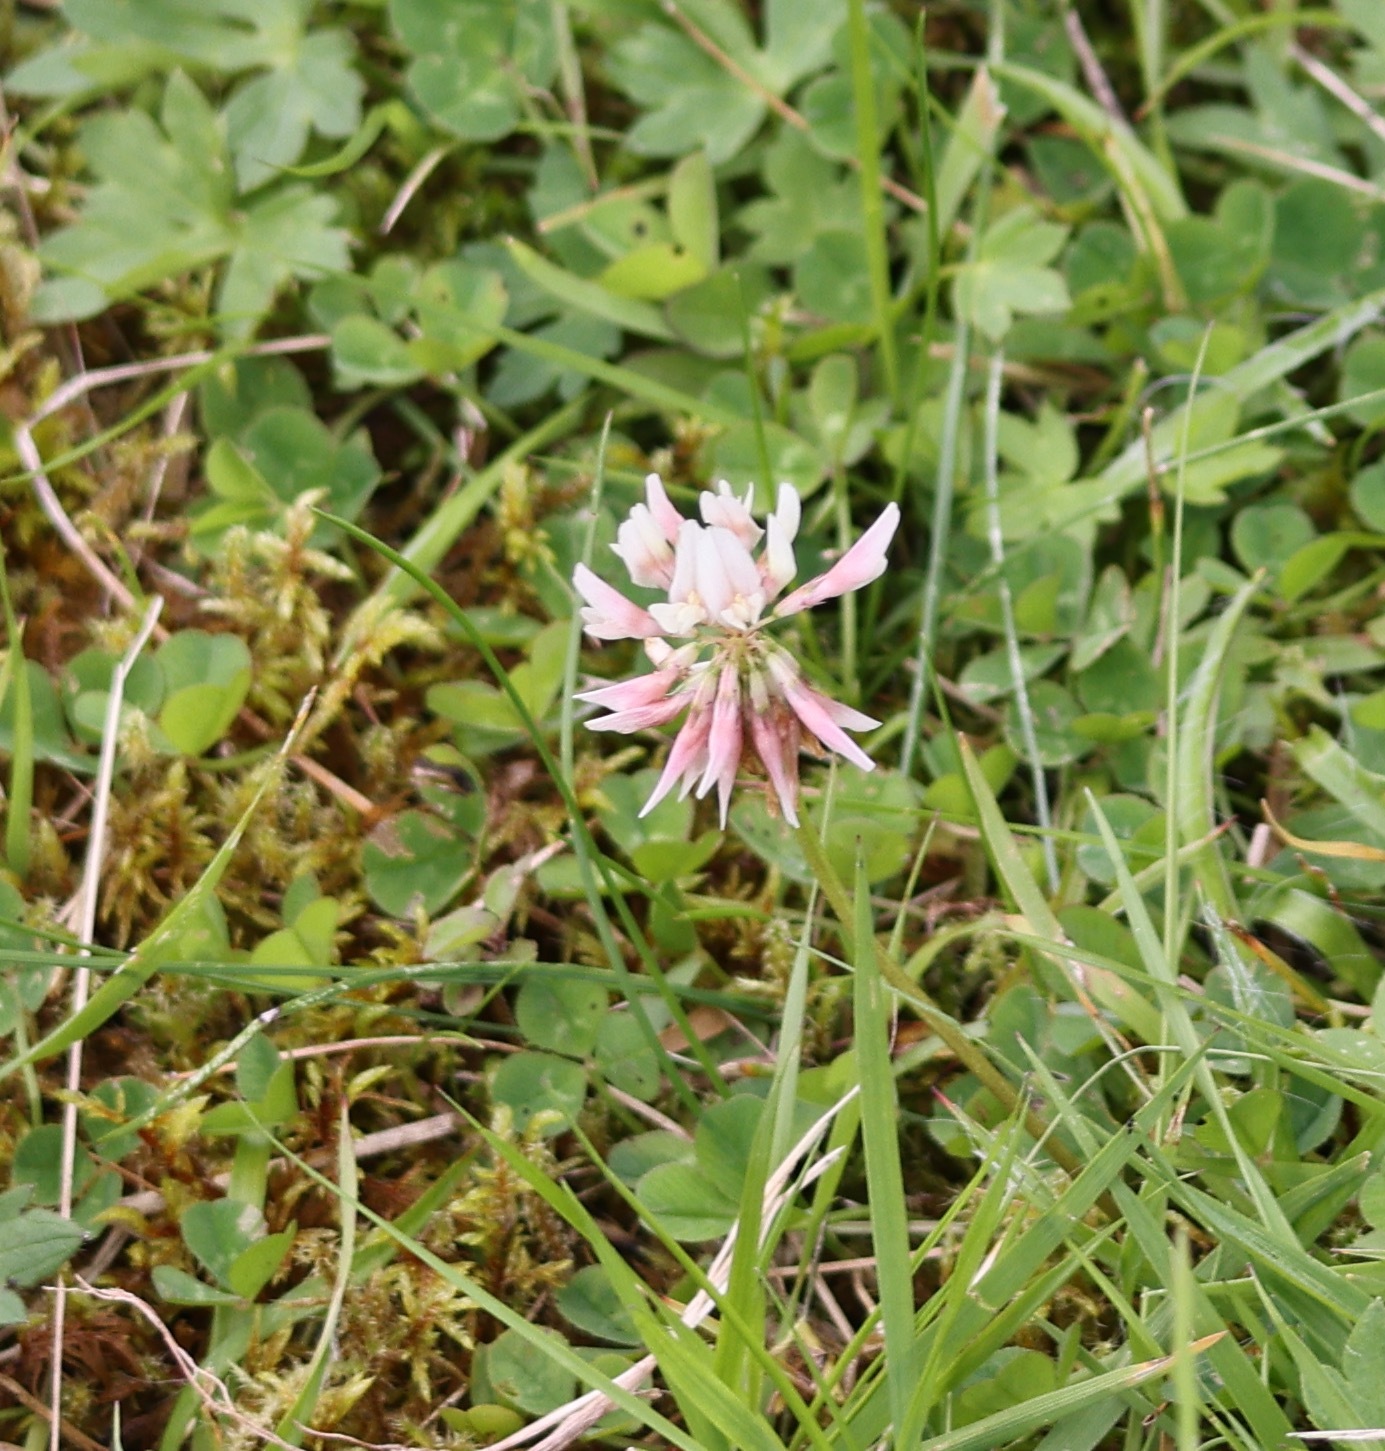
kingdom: Plantae
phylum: Tracheophyta
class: Magnoliopsida
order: Fabales
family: Fabaceae
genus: Trifolium
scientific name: Trifolium repens
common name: White clover
